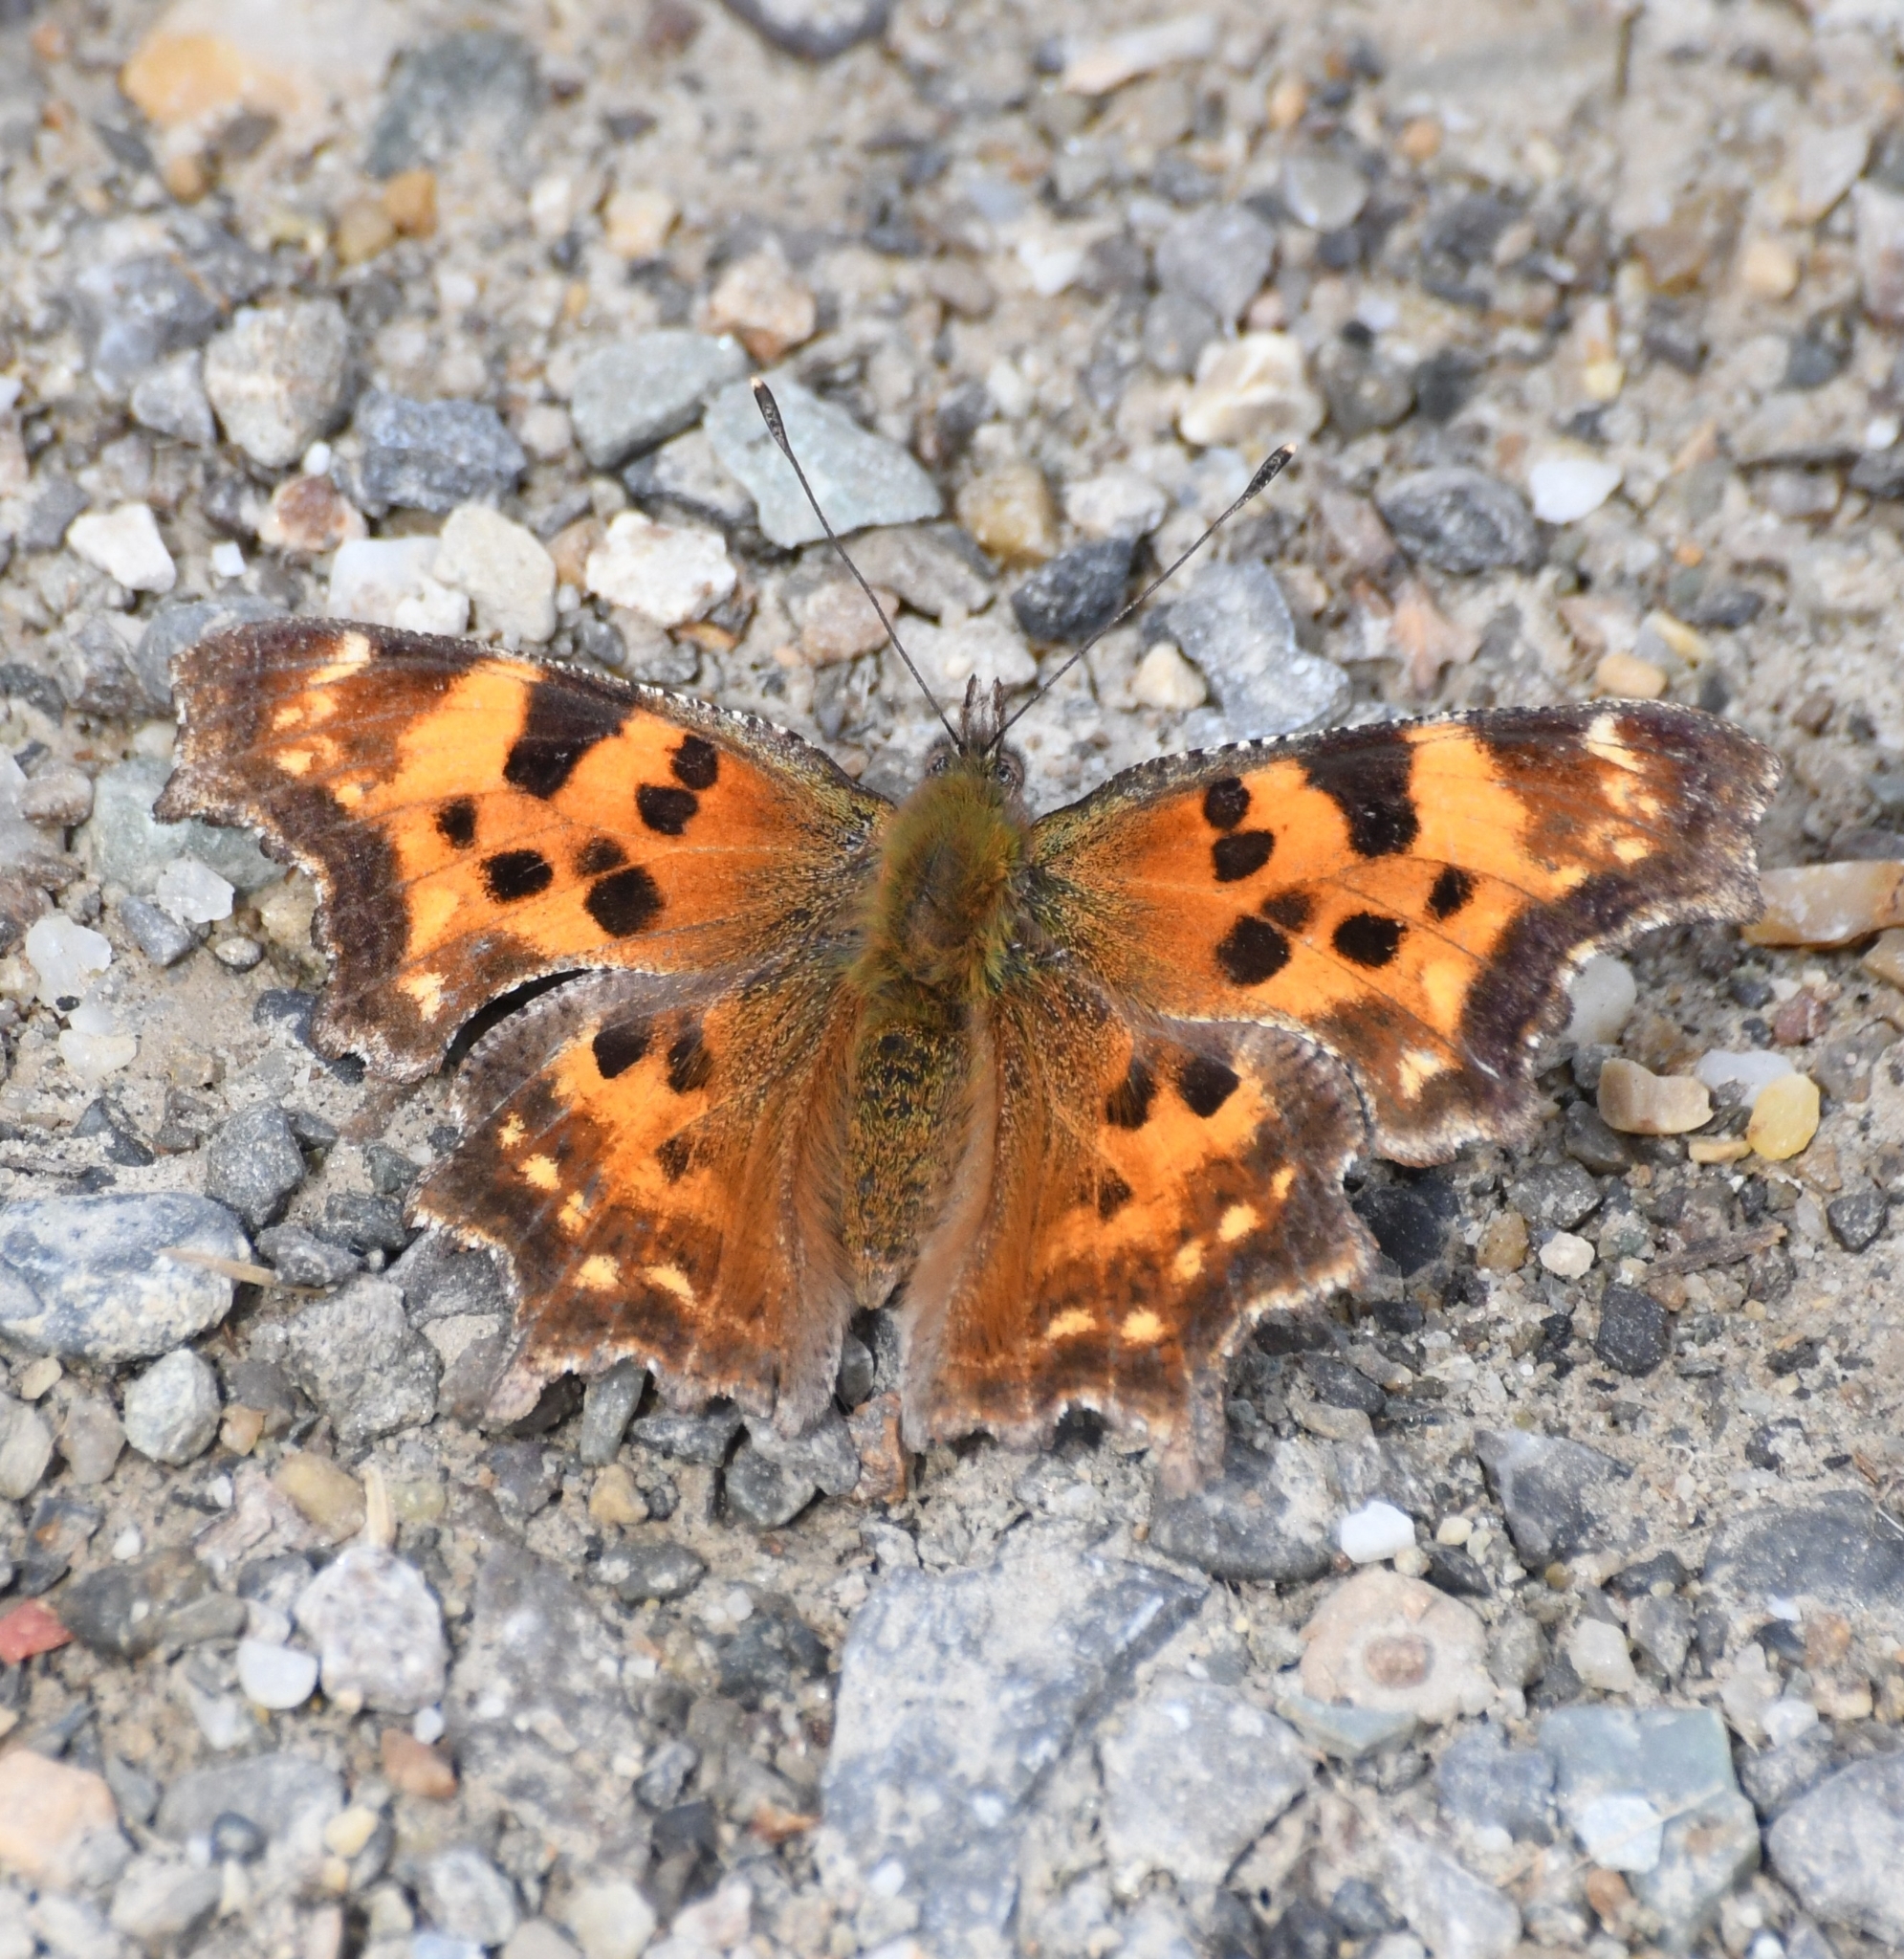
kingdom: Animalia
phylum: Arthropoda
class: Insecta
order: Lepidoptera
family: Nymphalidae
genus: Polygonia
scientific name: Polygonia faunus
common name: Green comma
